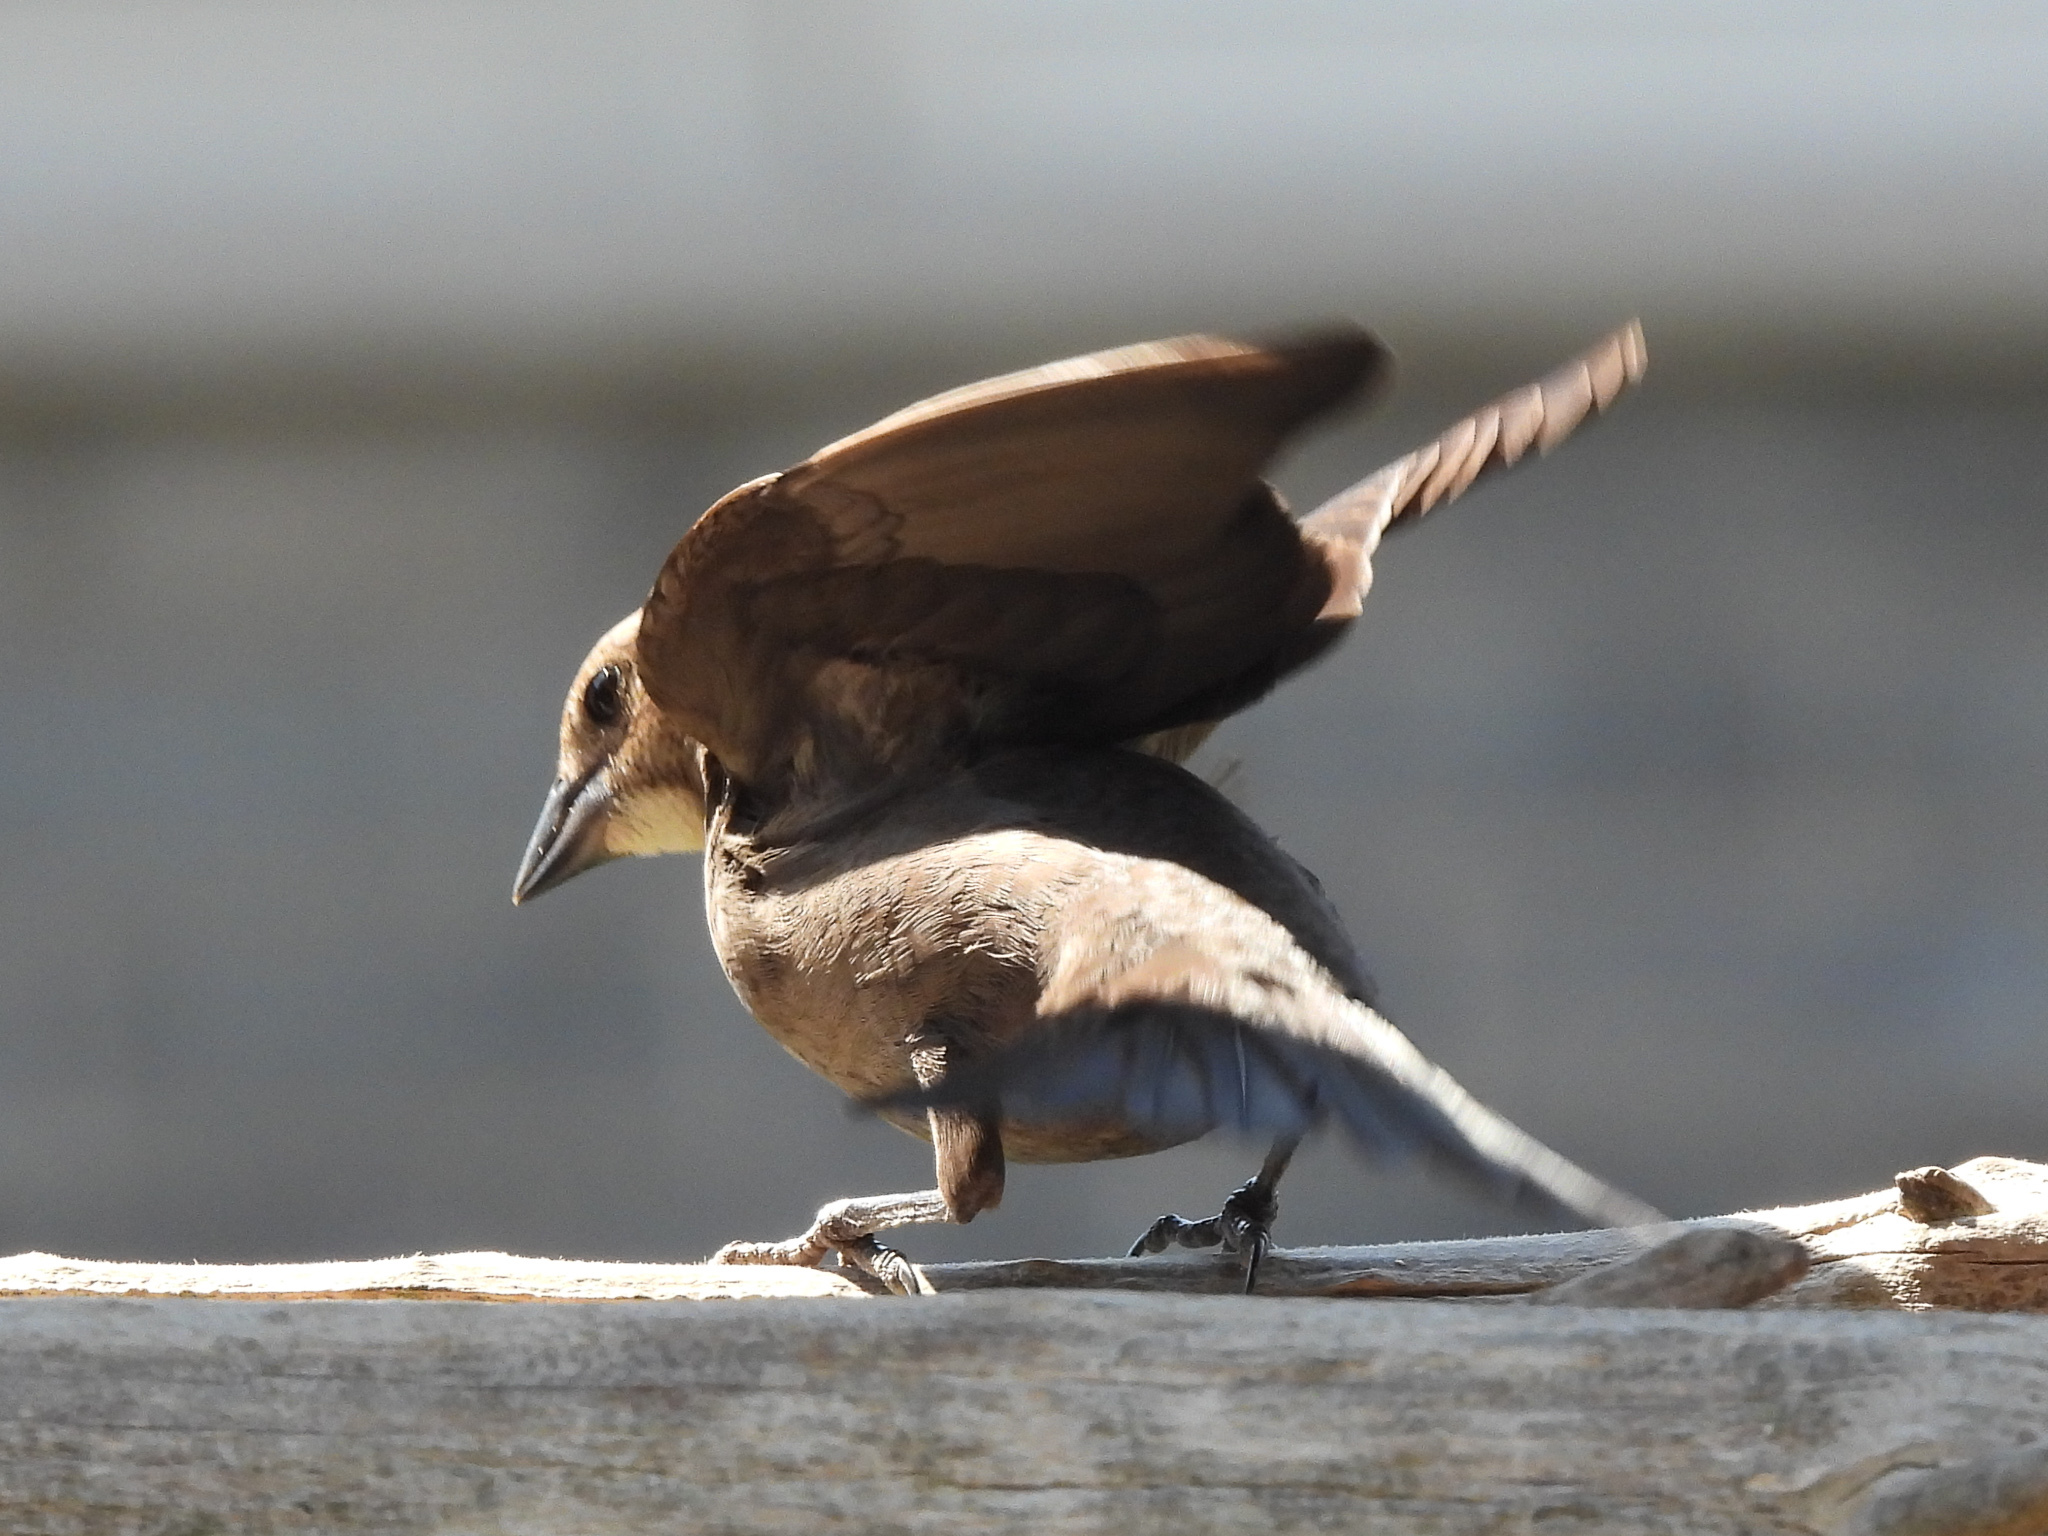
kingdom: Animalia
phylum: Chordata
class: Aves
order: Passeriformes
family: Icteridae
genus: Molothrus
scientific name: Molothrus ater
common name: Brown-headed cowbird
